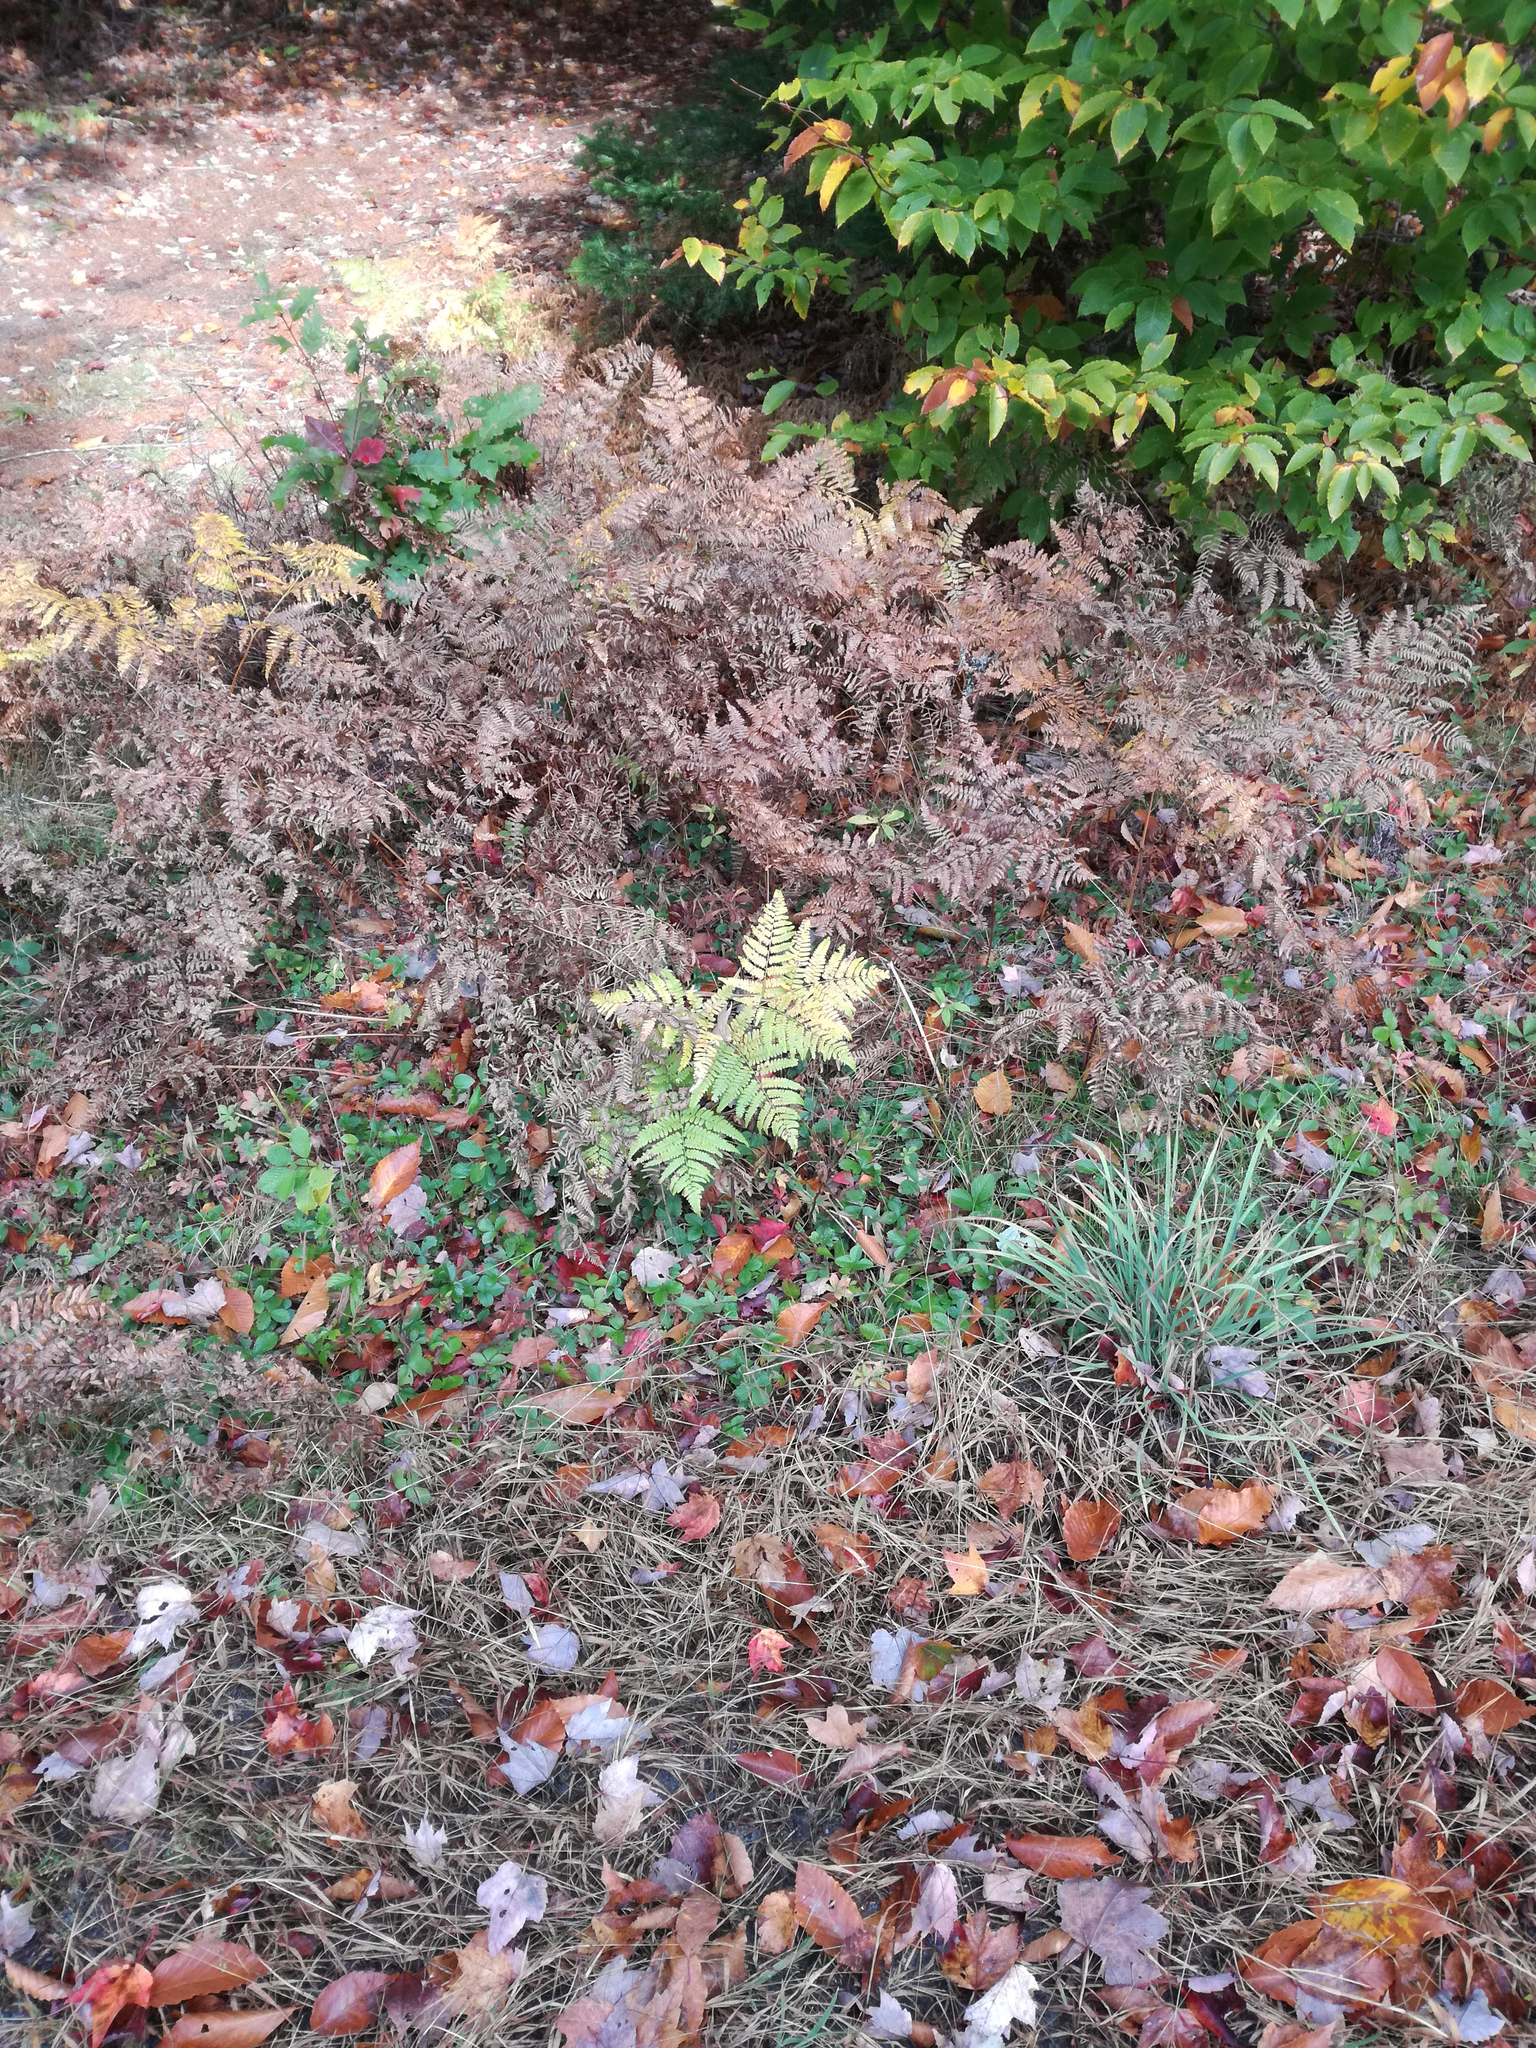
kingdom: Plantae
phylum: Tracheophyta
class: Polypodiopsida
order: Polypodiales
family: Dennstaedtiaceae
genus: Pteridium
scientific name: Pteridium aquilinum
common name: Bracken
